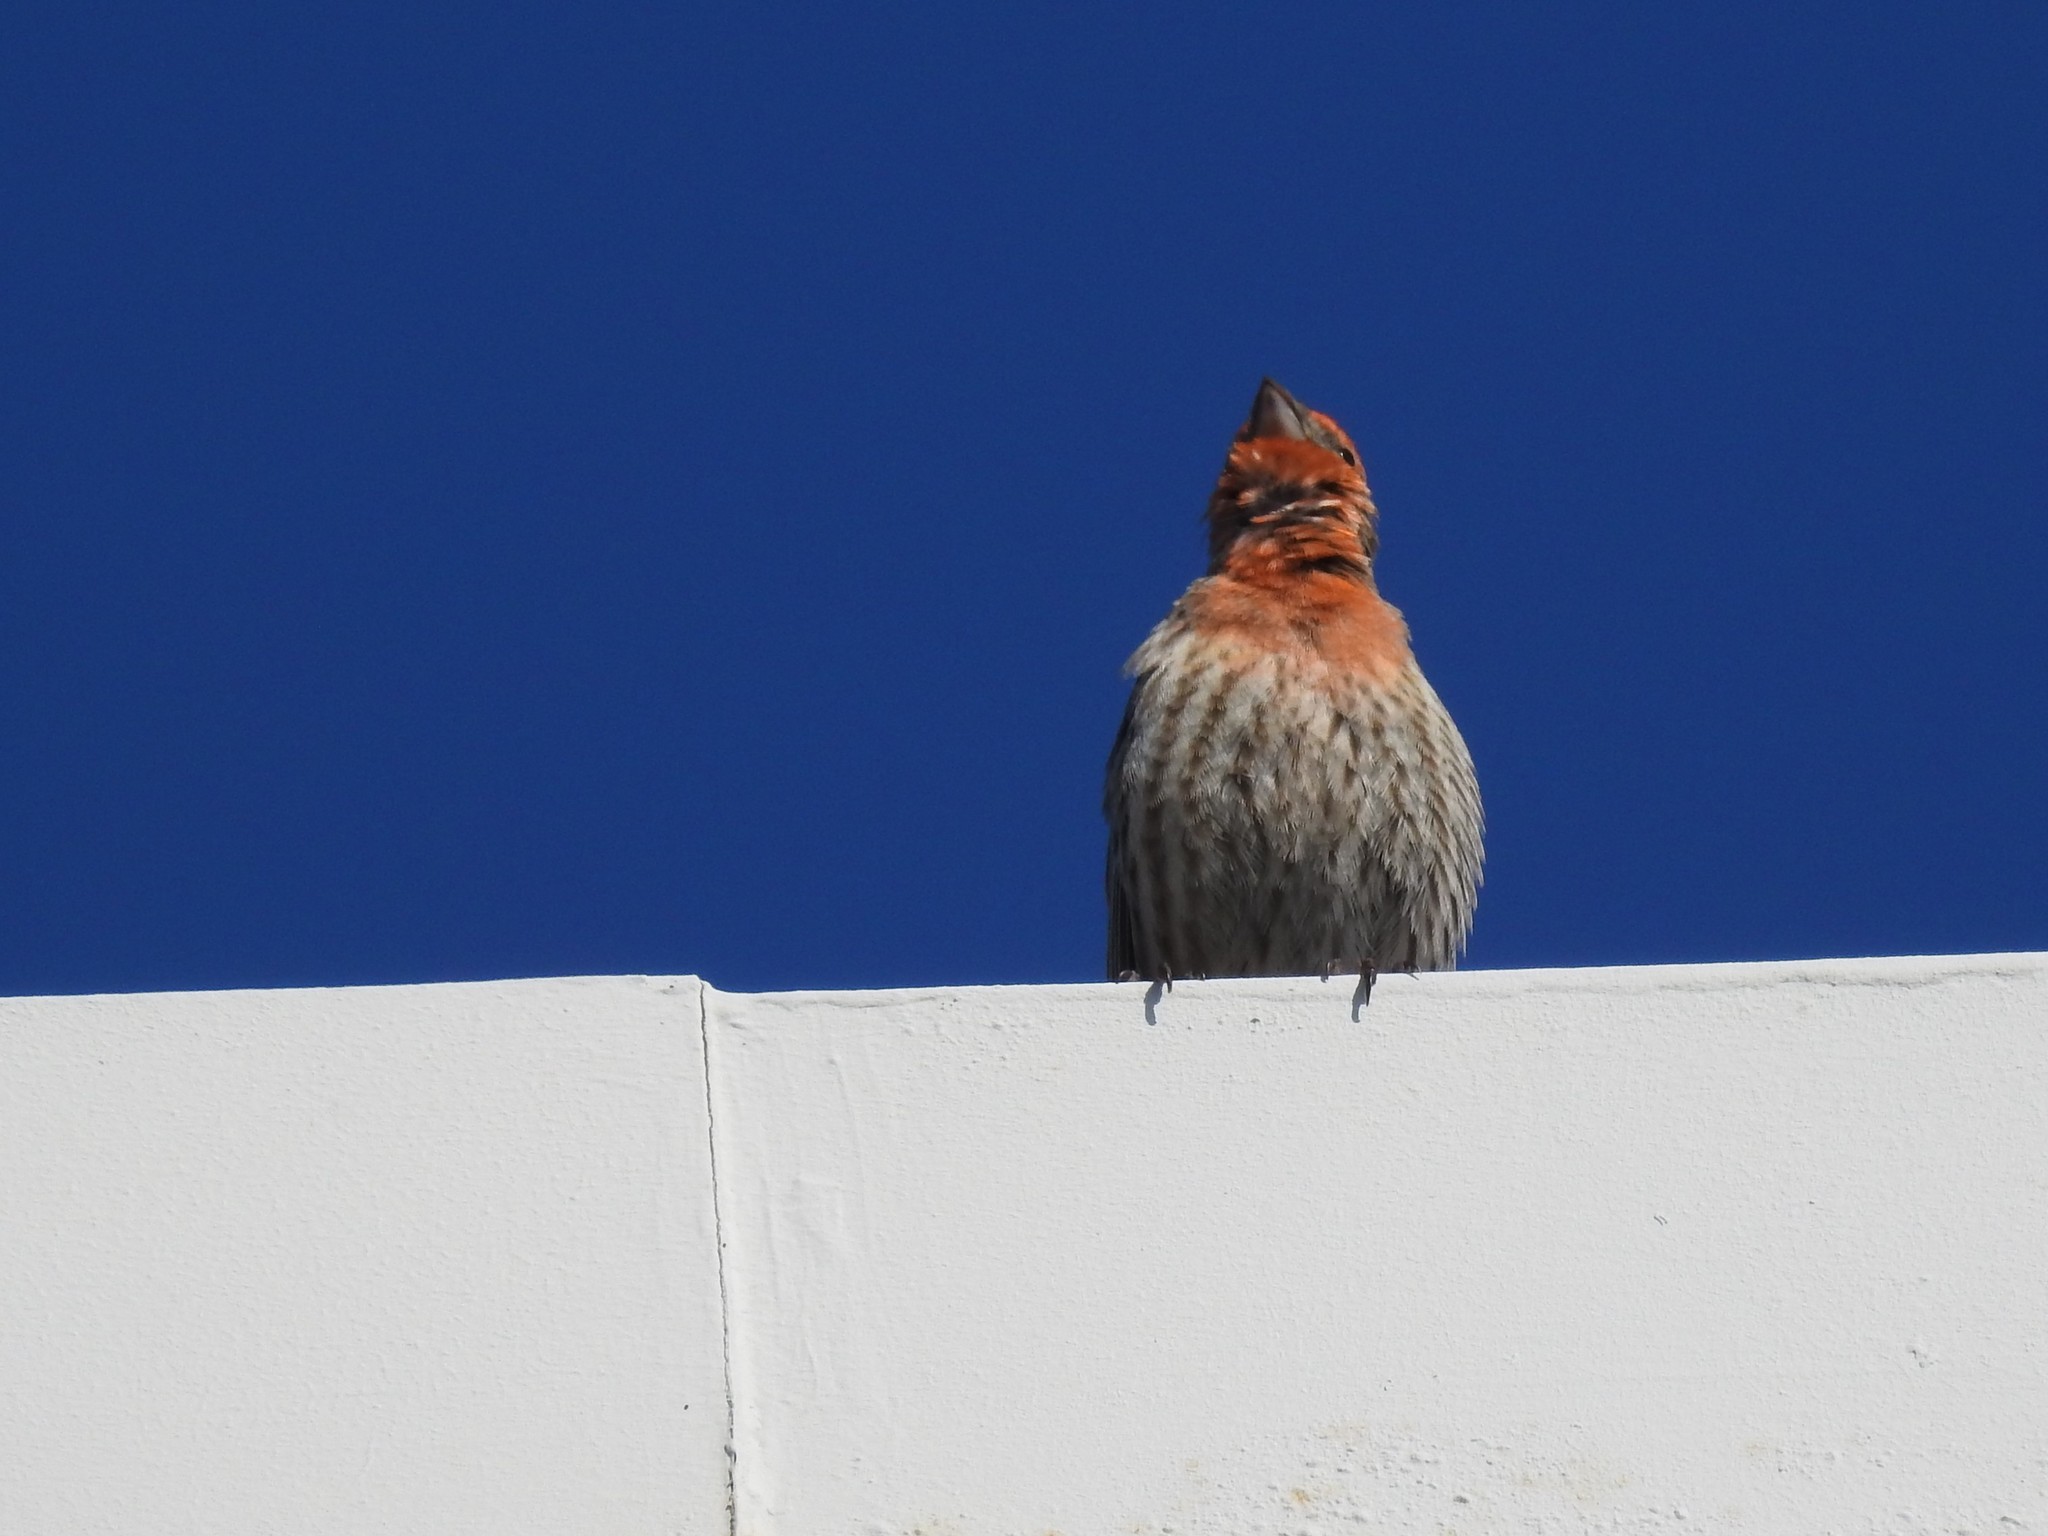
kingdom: Animalia
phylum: Chordata
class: Aves
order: Passeriformes
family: Fringillidae
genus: Haemorhous
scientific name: Haemorhous mexicanus
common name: House finch
